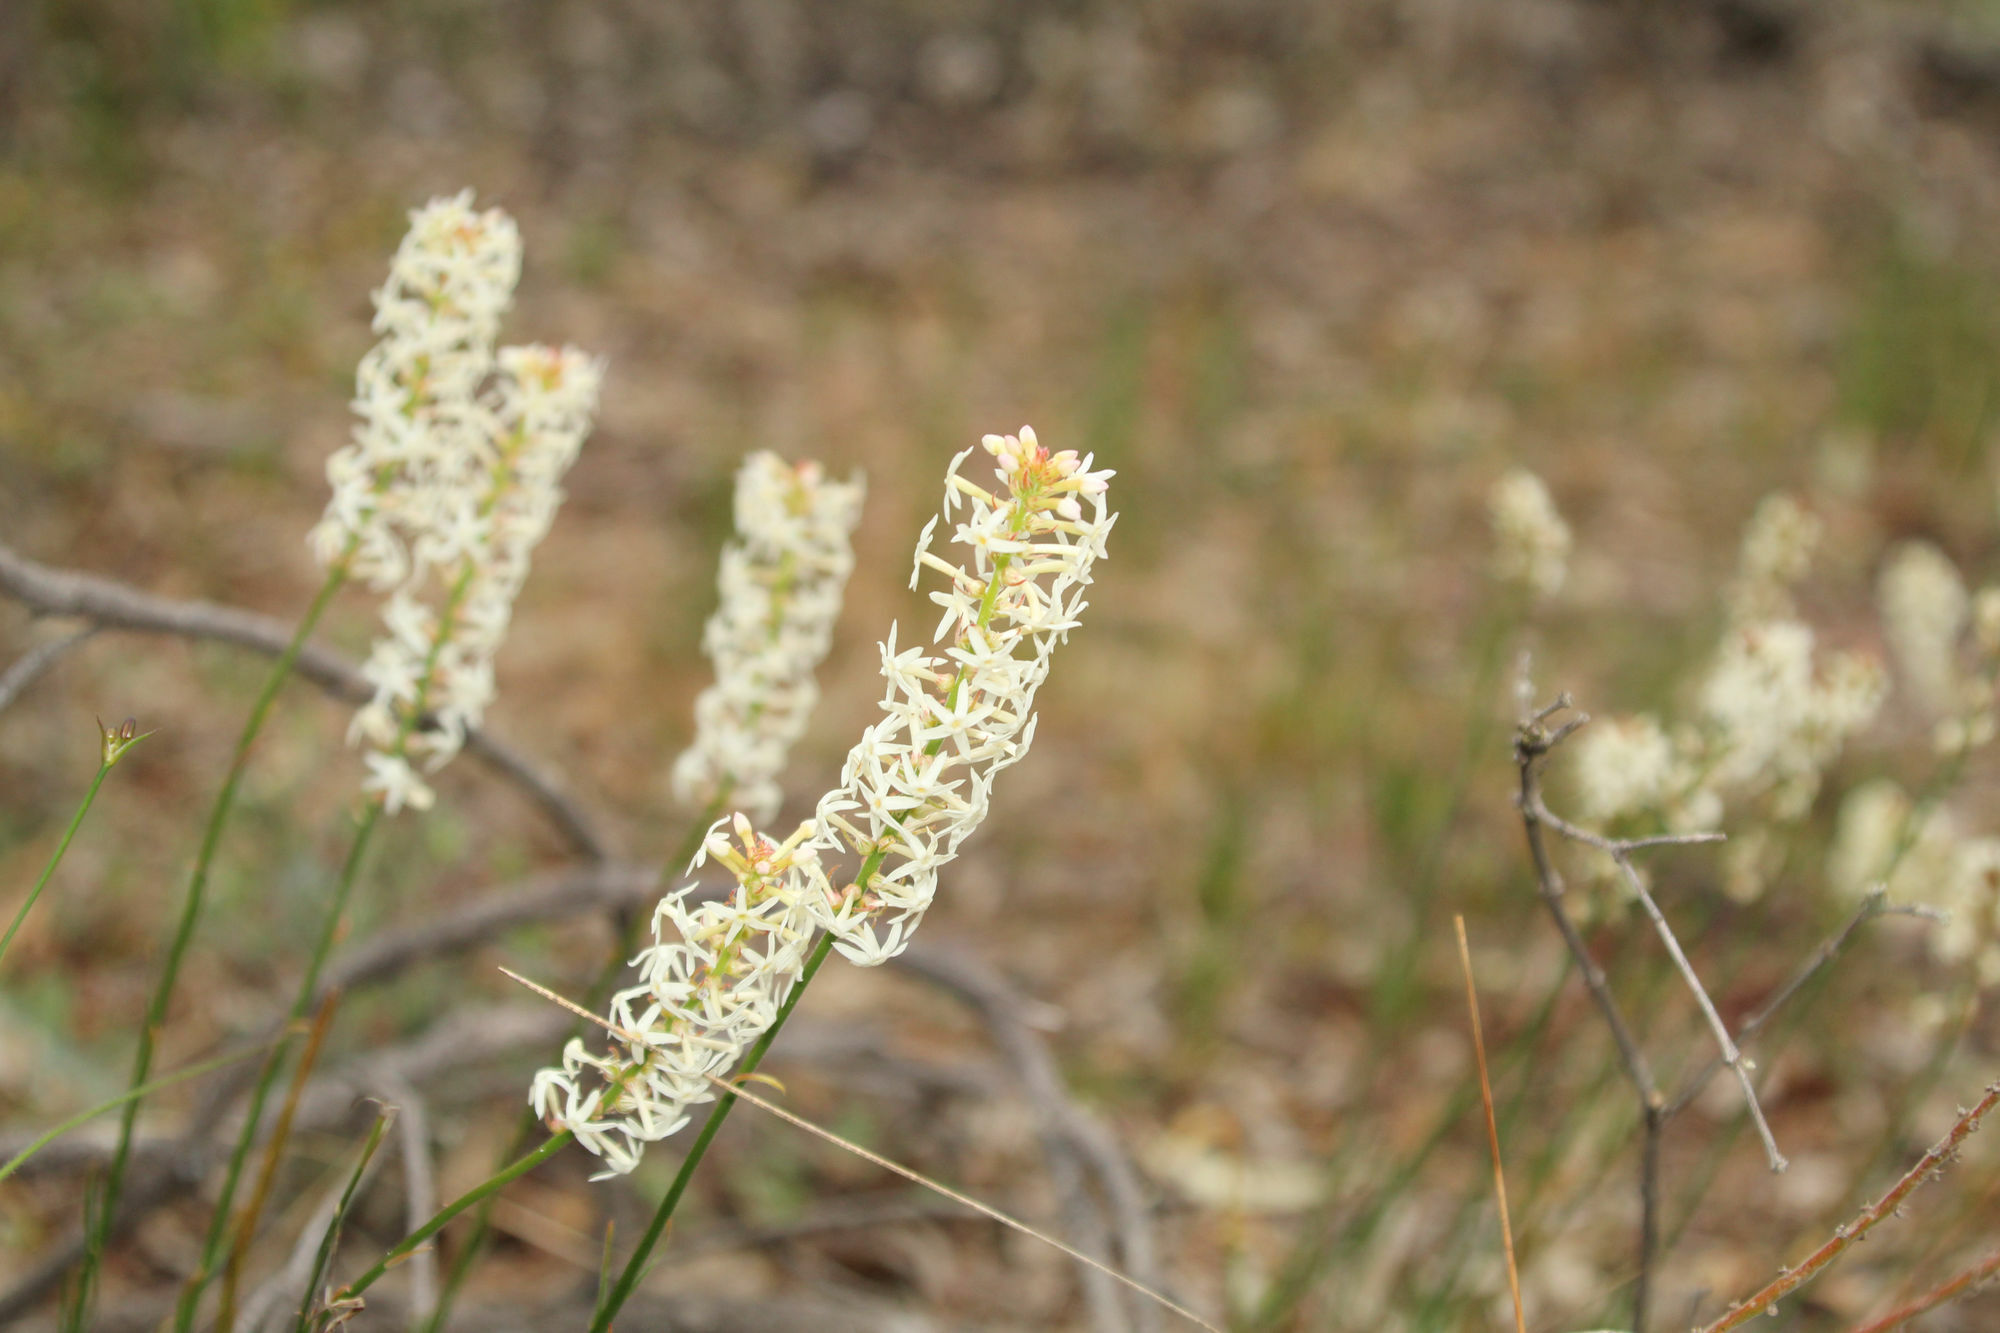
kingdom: Plantae
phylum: Tracheophyta
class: Magnoliopsida
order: Celastrales
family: Celastraceae
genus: Stackhousia
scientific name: Stackhousia monogyna
